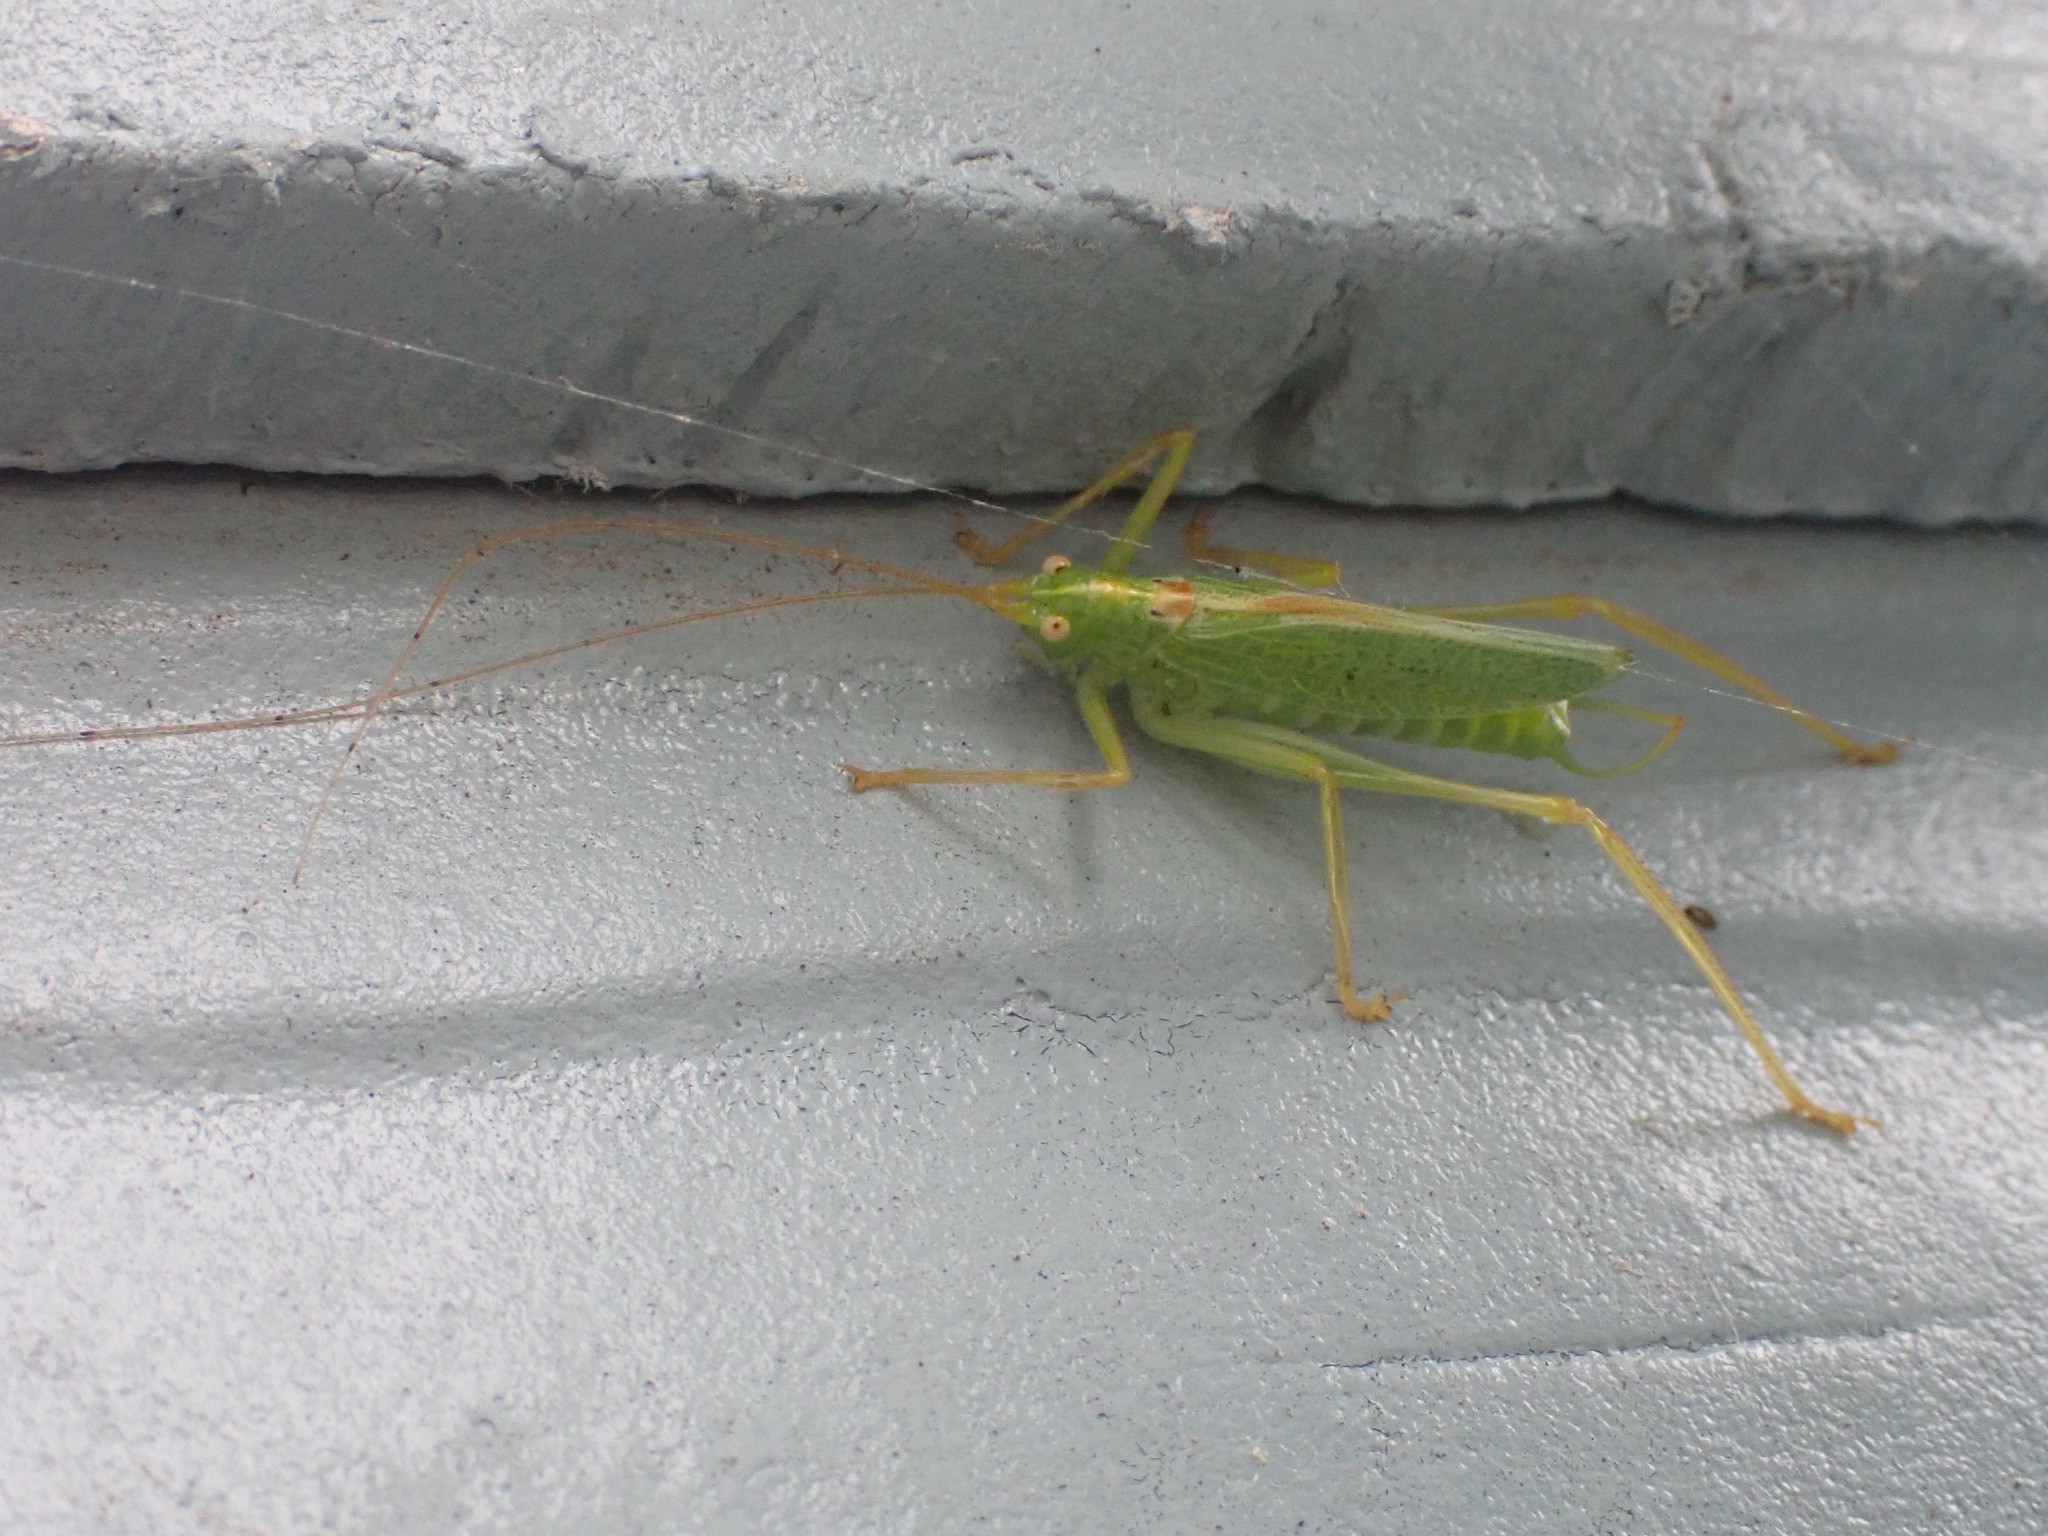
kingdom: Animalia
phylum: Arthropoda
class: Insecta
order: Orthoptera
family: Tettigoniidae
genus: Meconema
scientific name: Meconema thalassinum
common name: Oak bush-cricket
